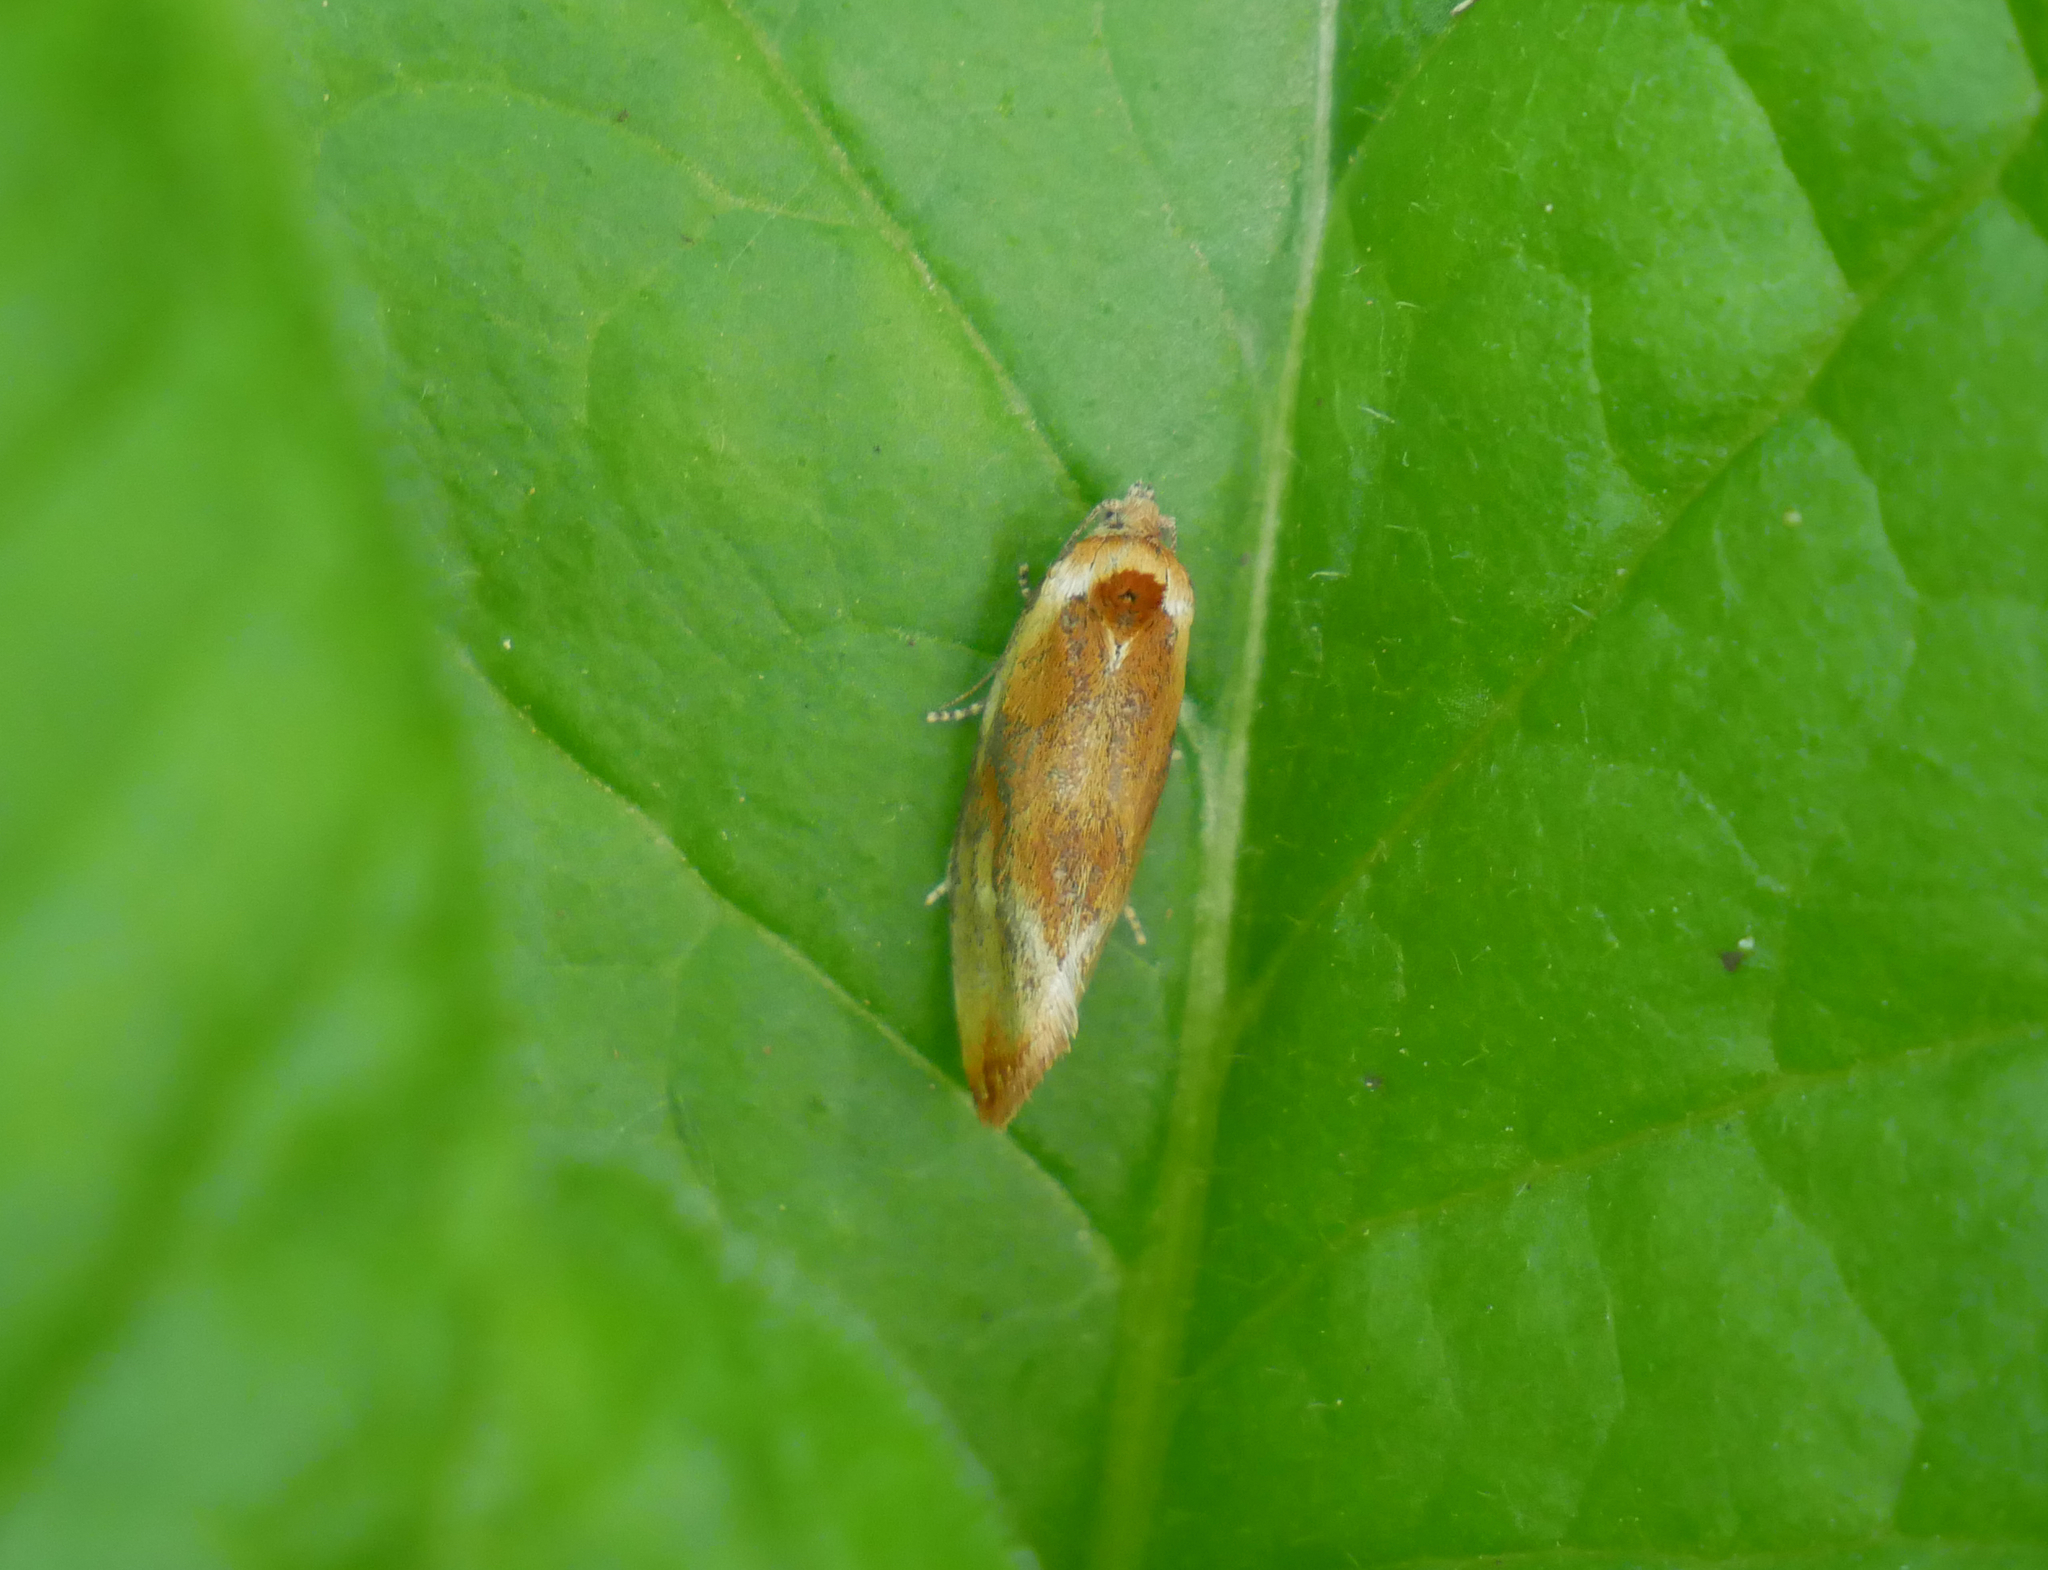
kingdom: Animalia
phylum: Arthropoda
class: Insecta
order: Lepidoptera
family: Tortricidae
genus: Eulia
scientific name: Eulia ministrana
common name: Brassy twist
